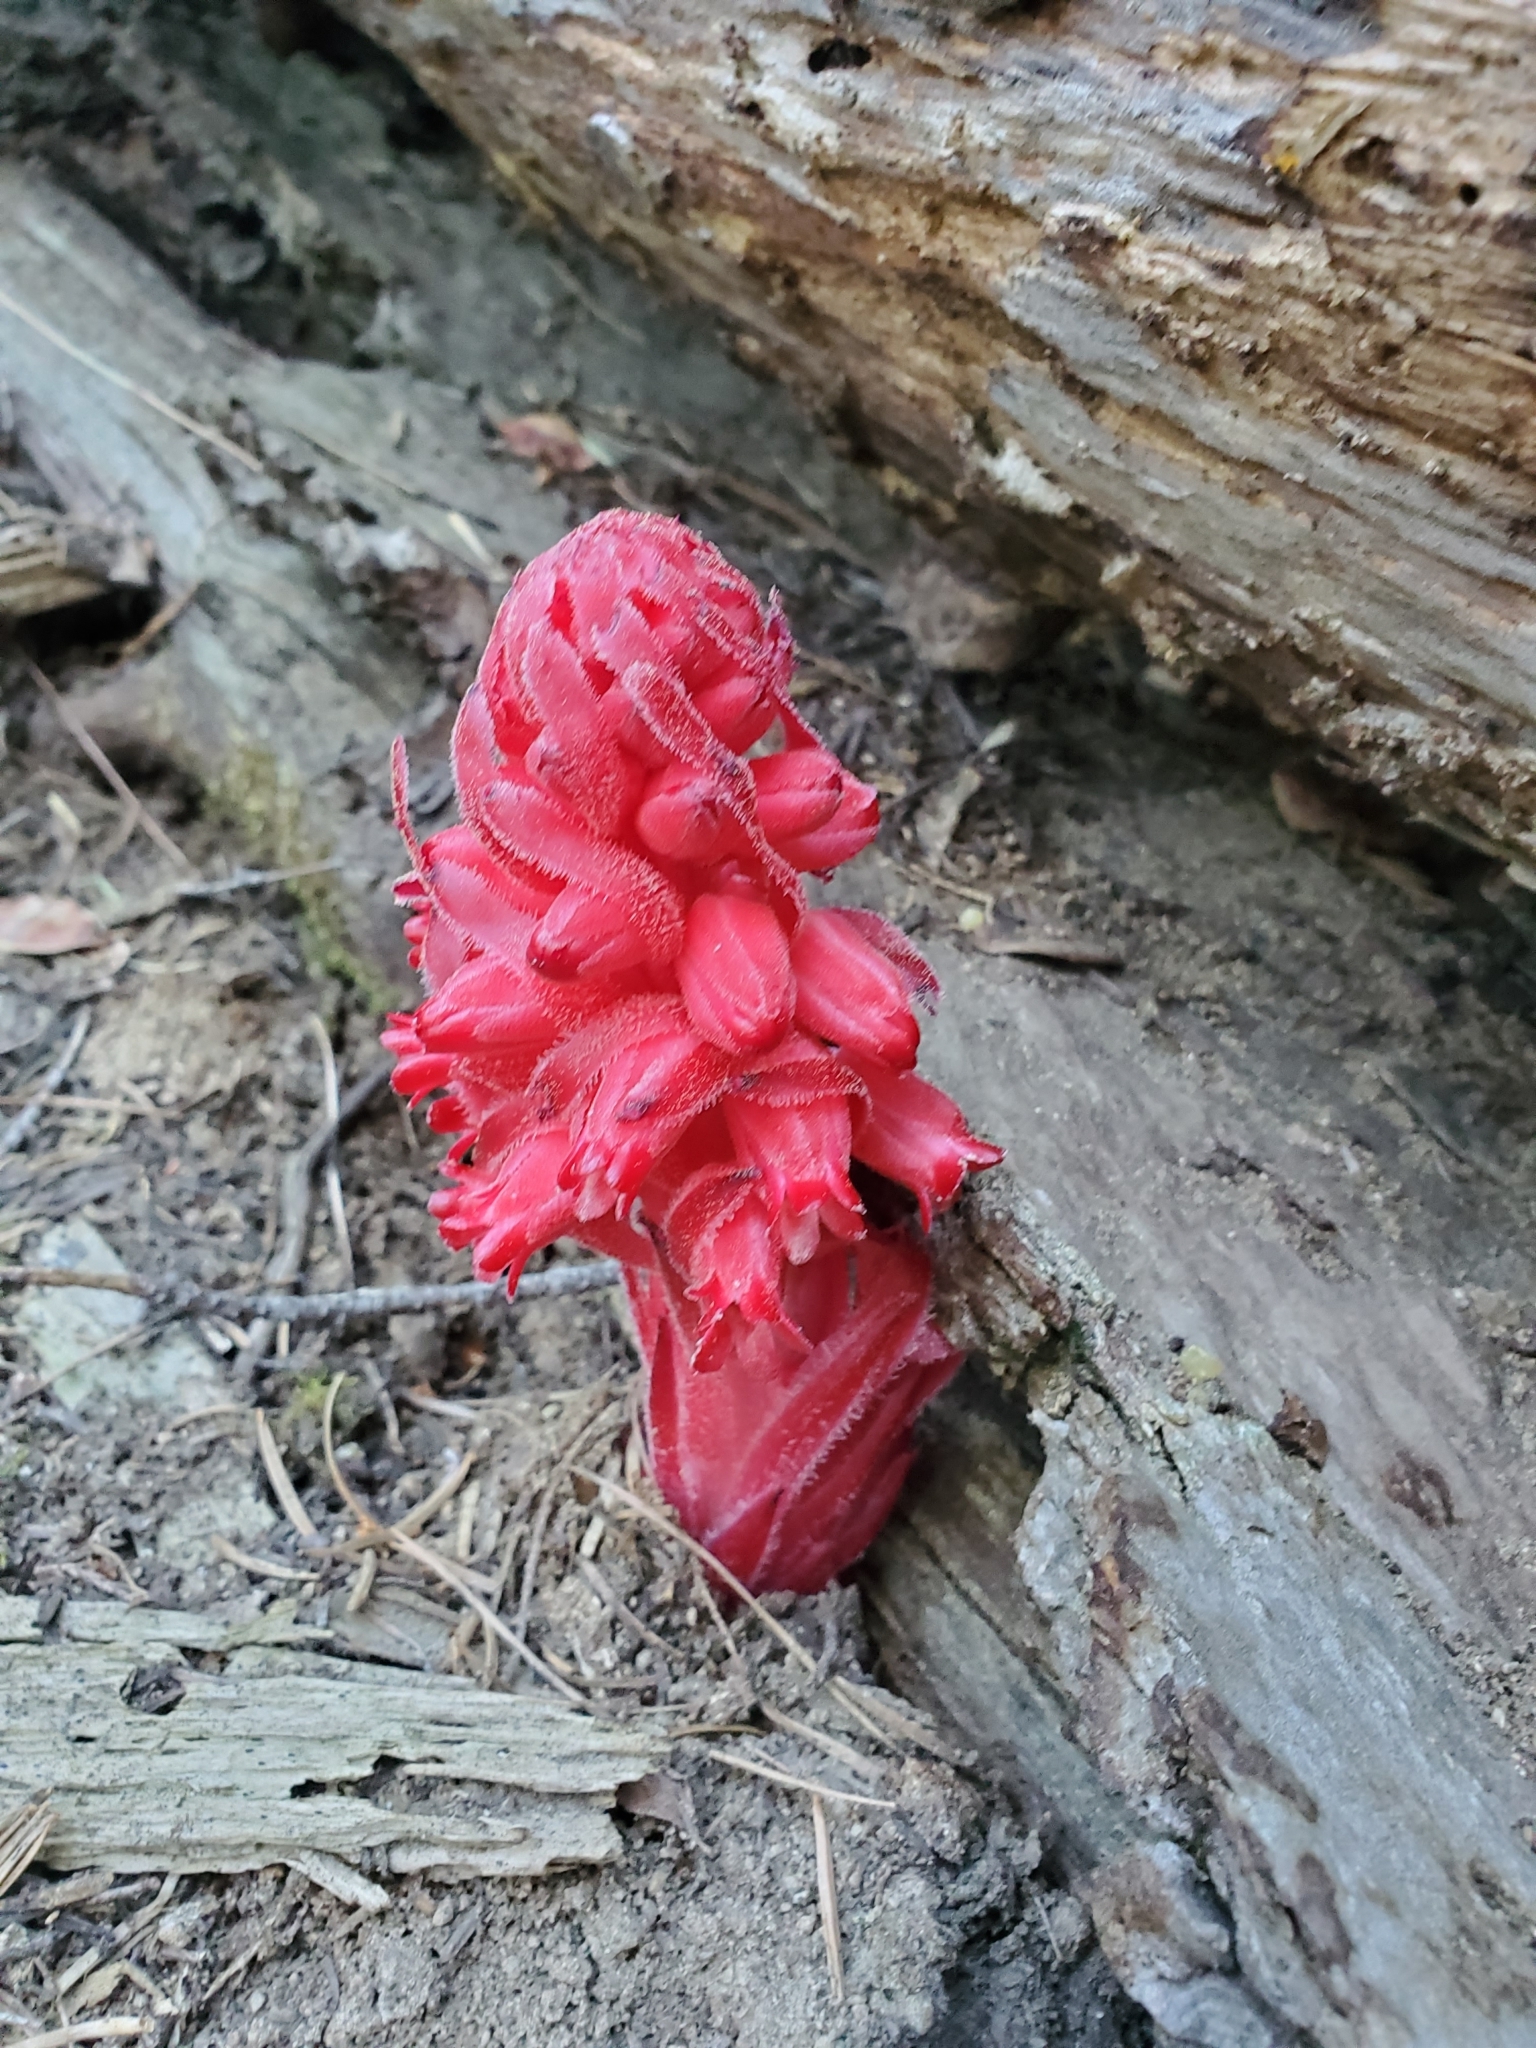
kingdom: Plantae
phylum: Tracheophyta
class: Magnoliopsida
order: Ericales
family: Ericaceae
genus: Sarcodes
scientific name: Sarcodes sanguinea
